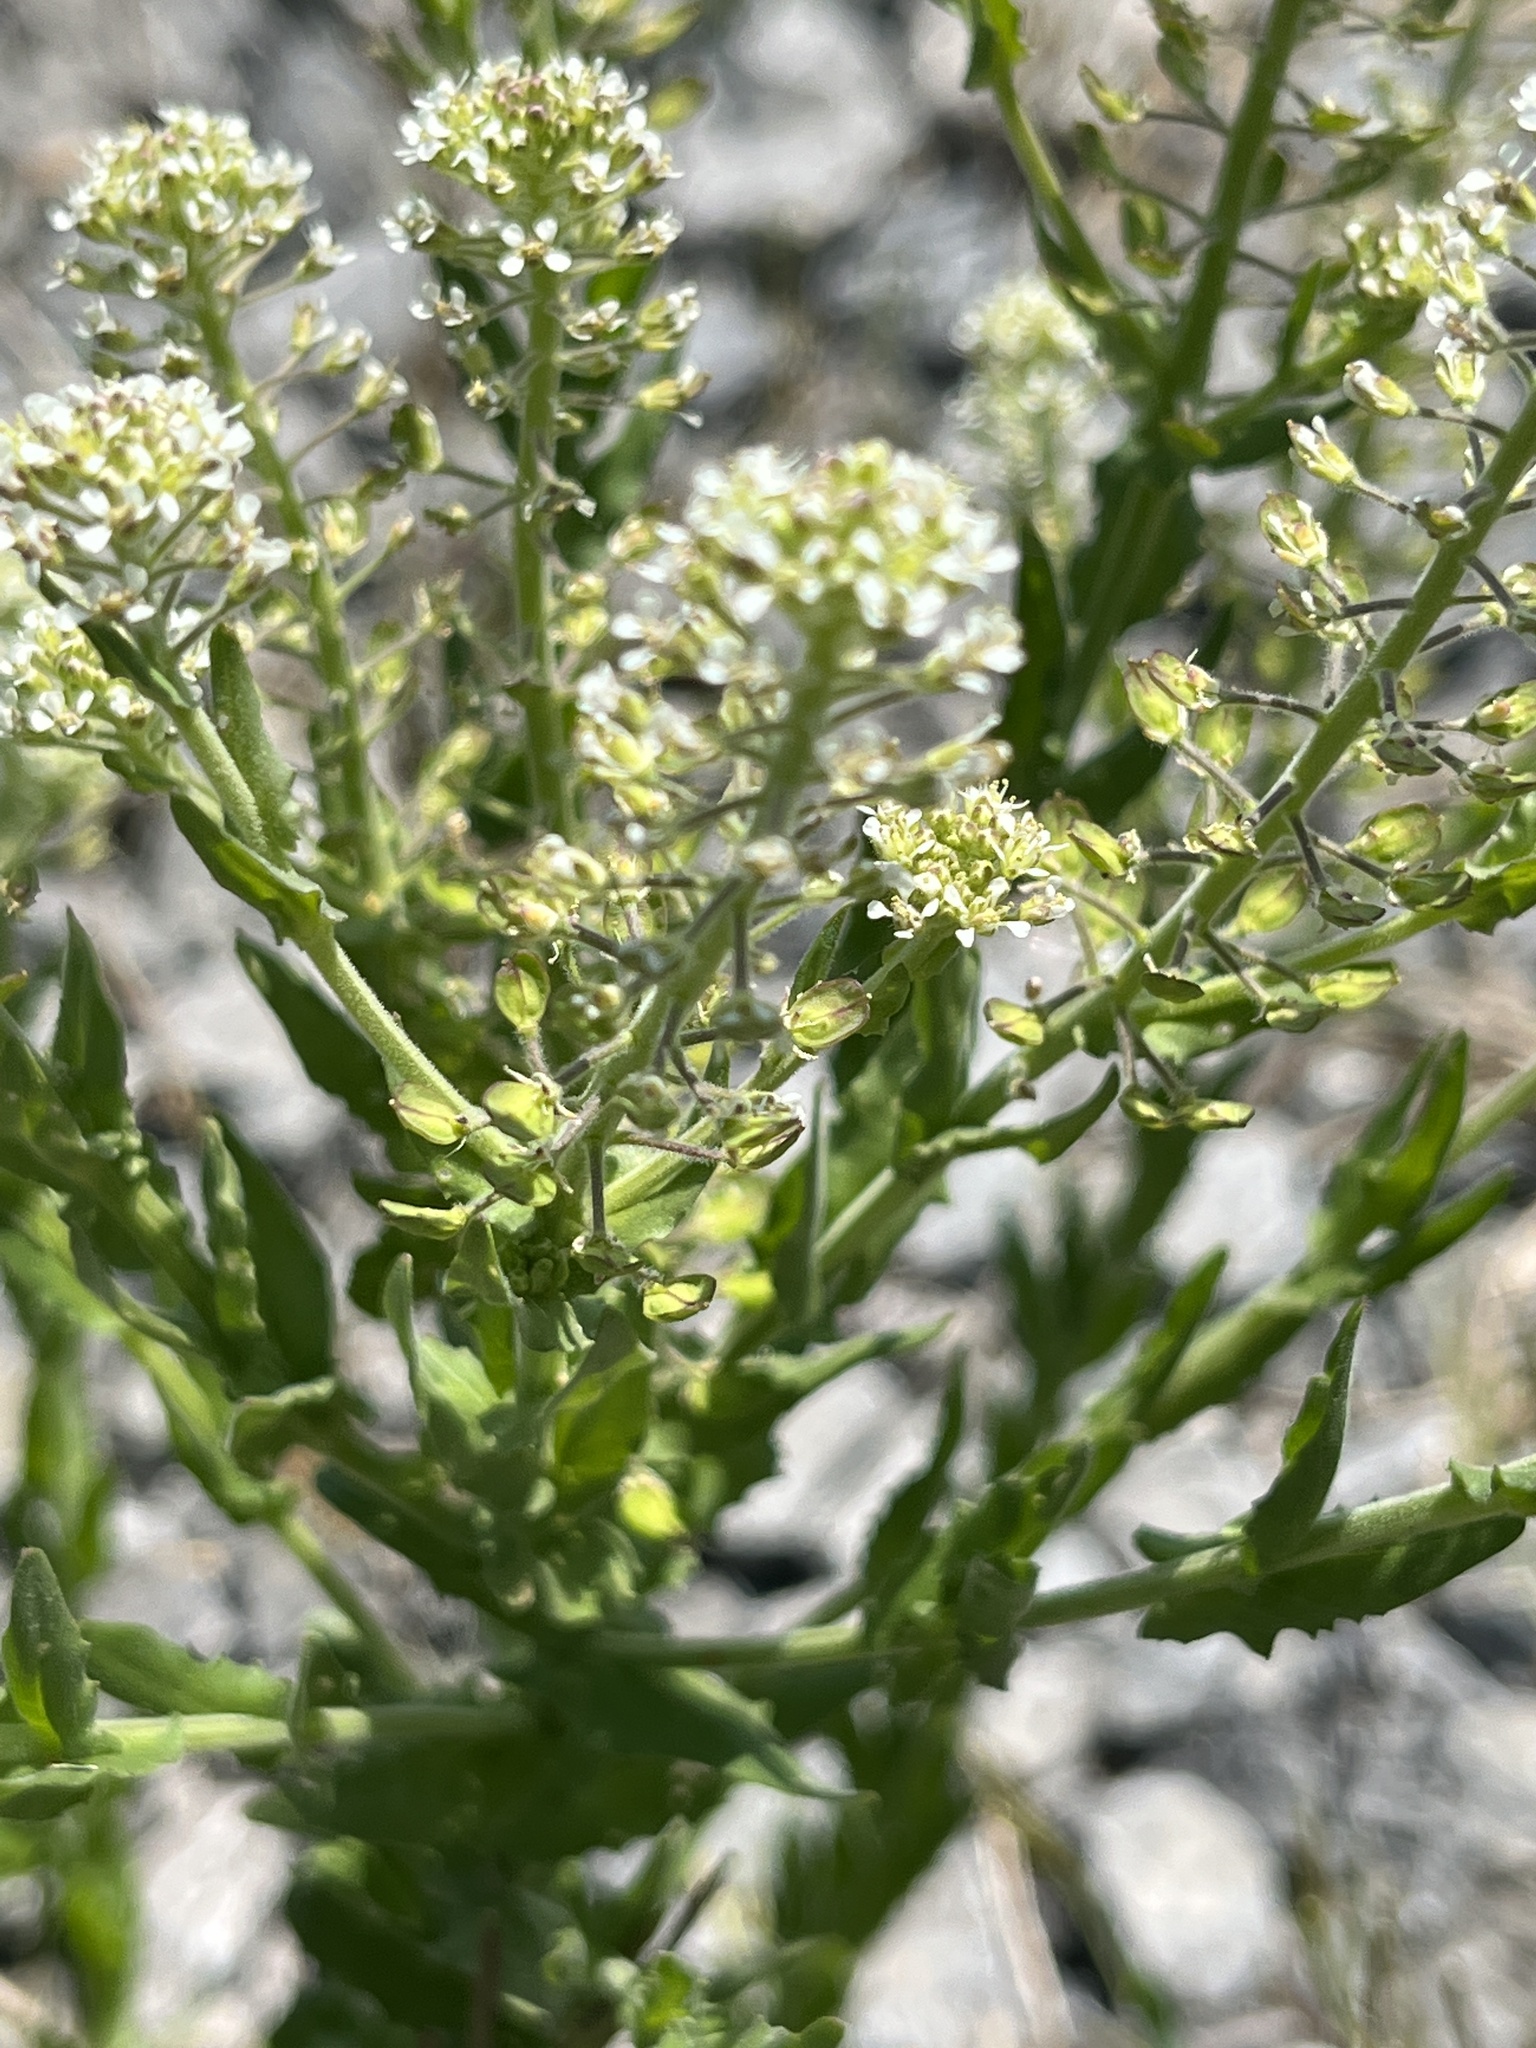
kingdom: Plantae
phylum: Tracheophyta
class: Magnoliopsida
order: Brassicales
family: Brassicaceae
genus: Lepidium
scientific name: Lepidium campestre
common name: Field pepperwort
